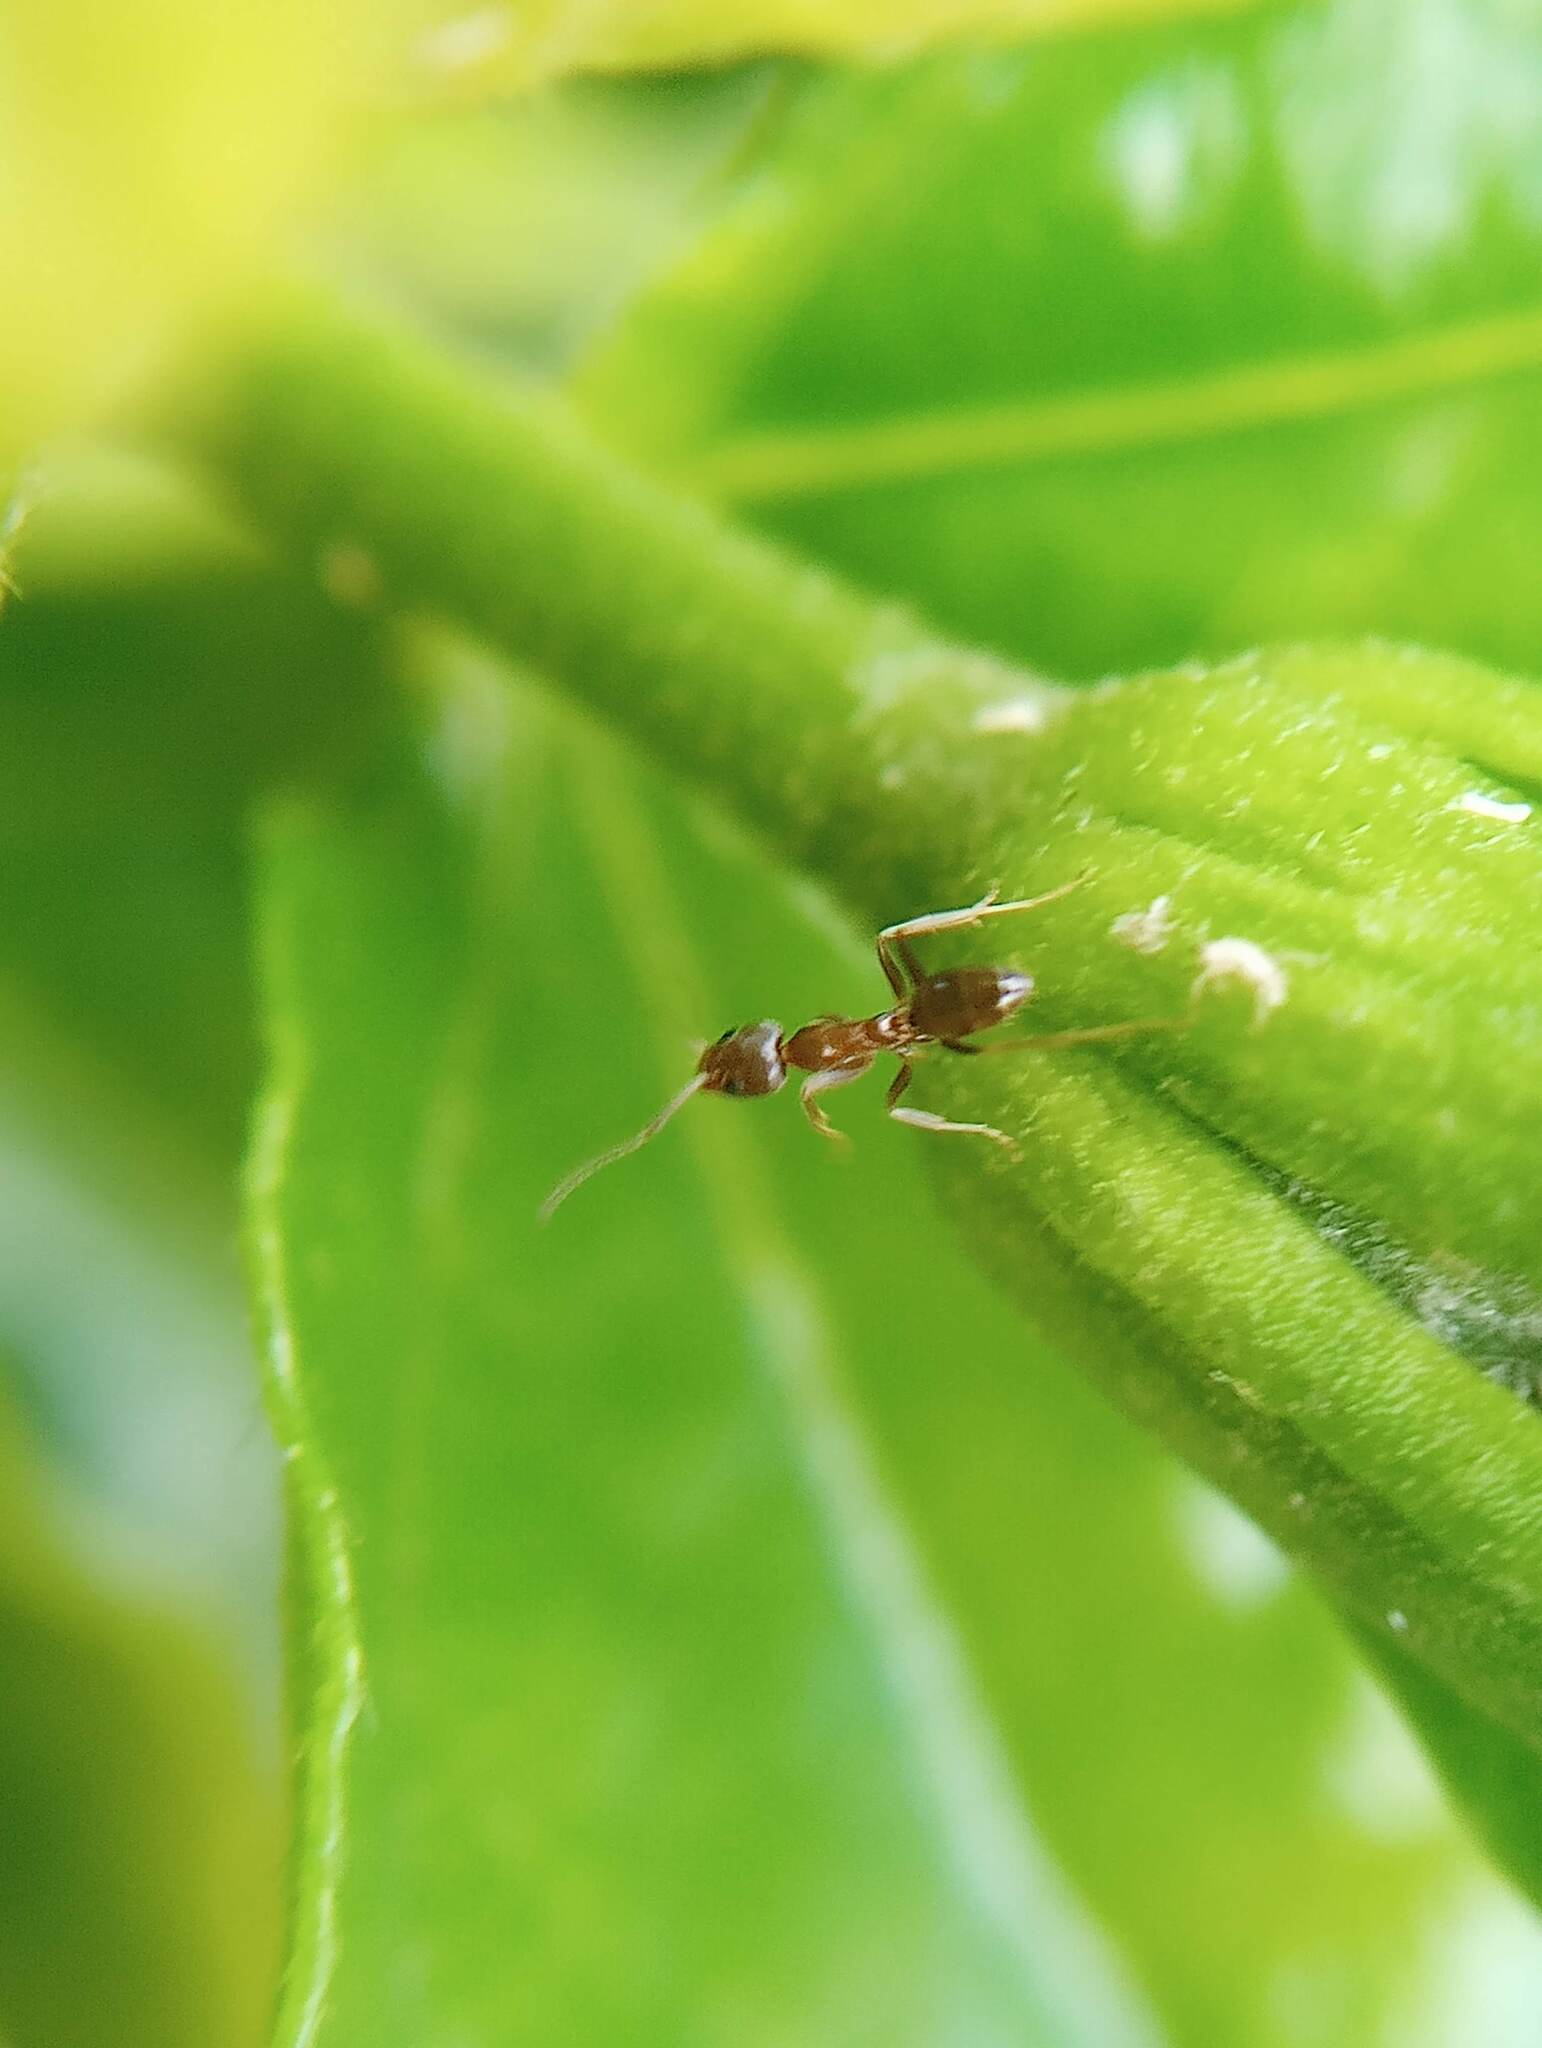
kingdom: Animalia
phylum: Arthropoda
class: Insecta
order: Hymenoptera
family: Formicidae
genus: Linepithema
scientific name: Linepithema humile
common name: Argentine ant
